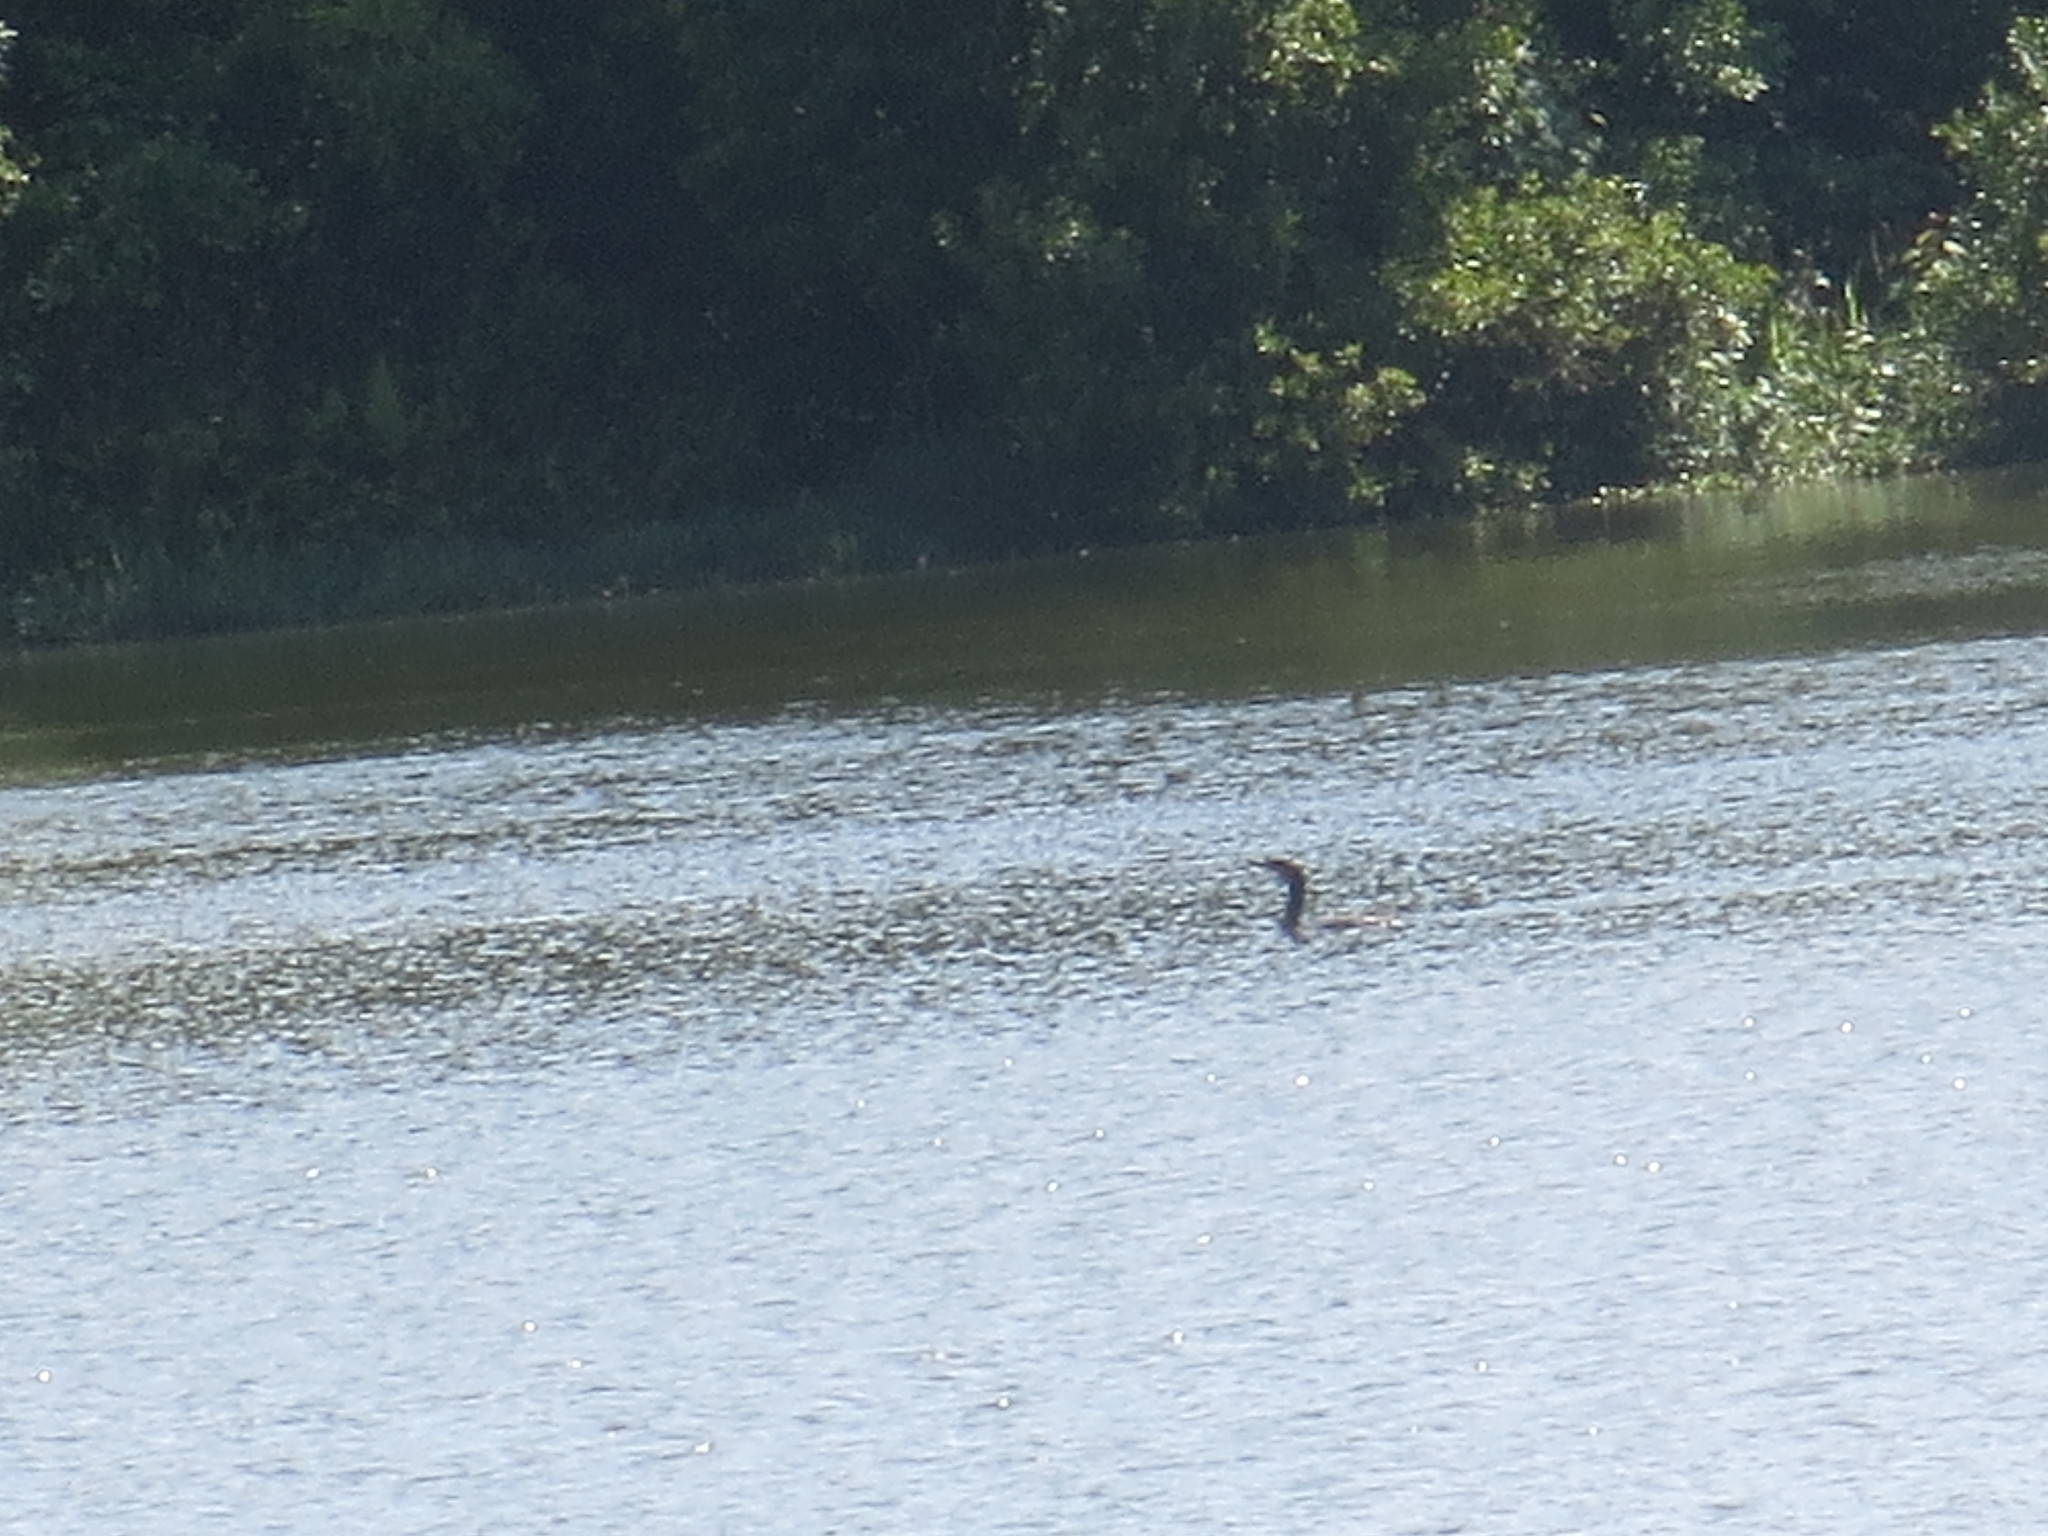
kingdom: Animalia
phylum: Chordata
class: Aves
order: Suliformes
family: Phalacrocoracidae
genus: Phalacrocorax
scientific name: Phalacrocorax auritus
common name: Double-crested cormorant
